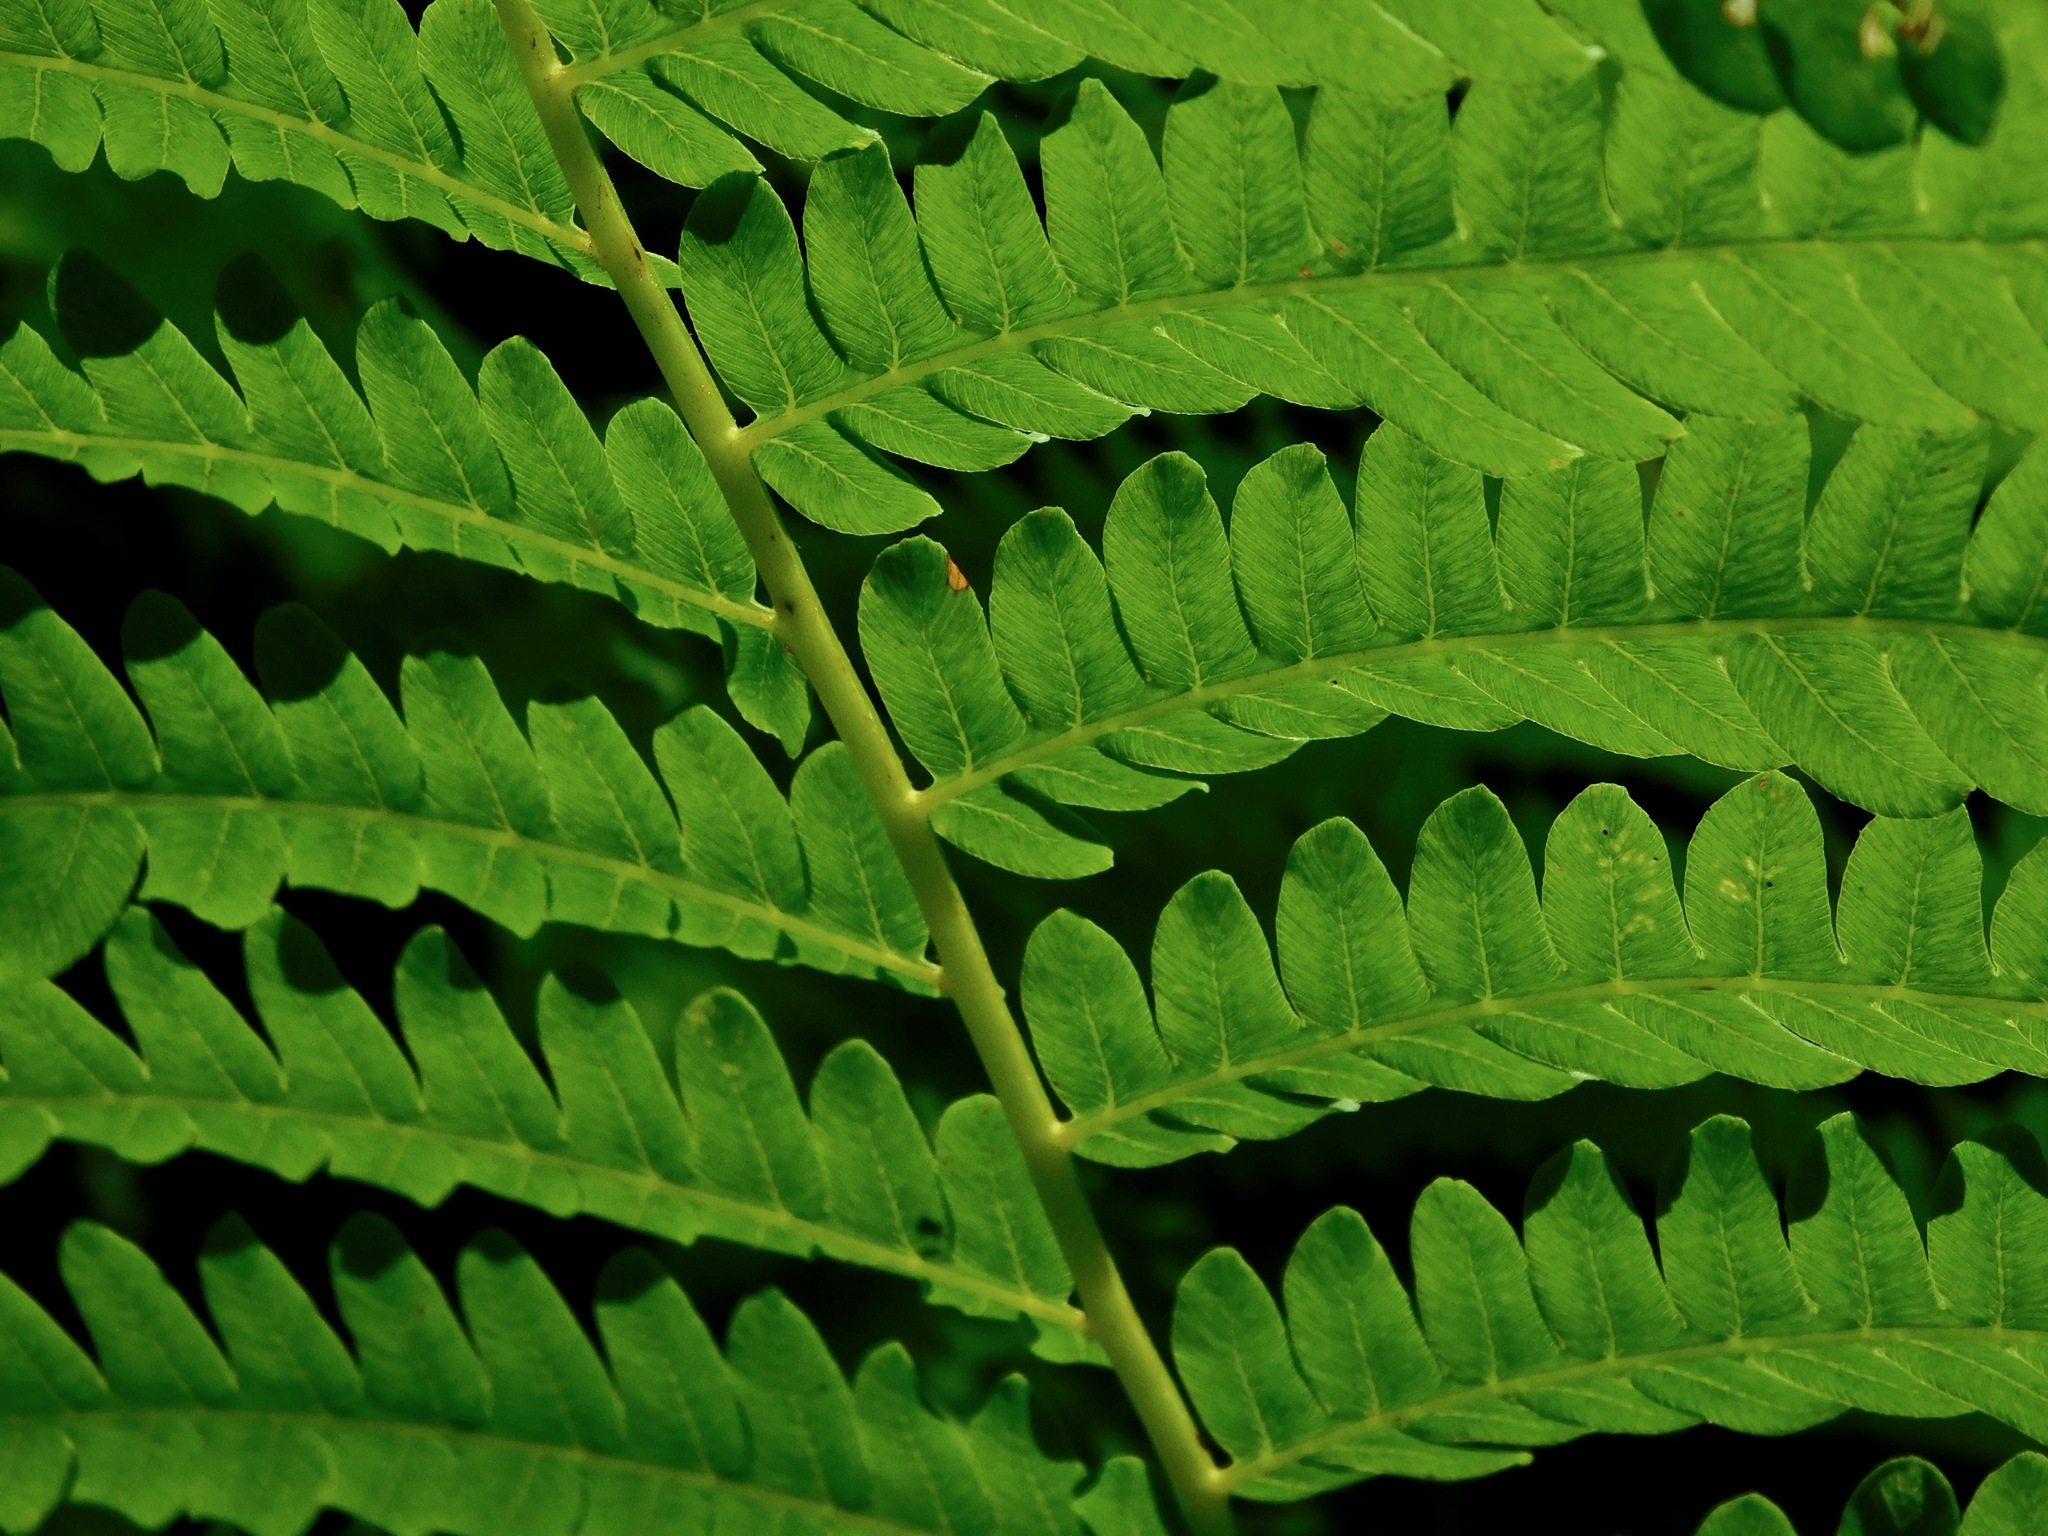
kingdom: Plantae
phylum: Tracheophyta
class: Polypodiopsida
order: Osmundales
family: Osmundaceae
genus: Osmundastrum
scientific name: Osmundastrum cinnamomeum
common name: Cinnamon fern
